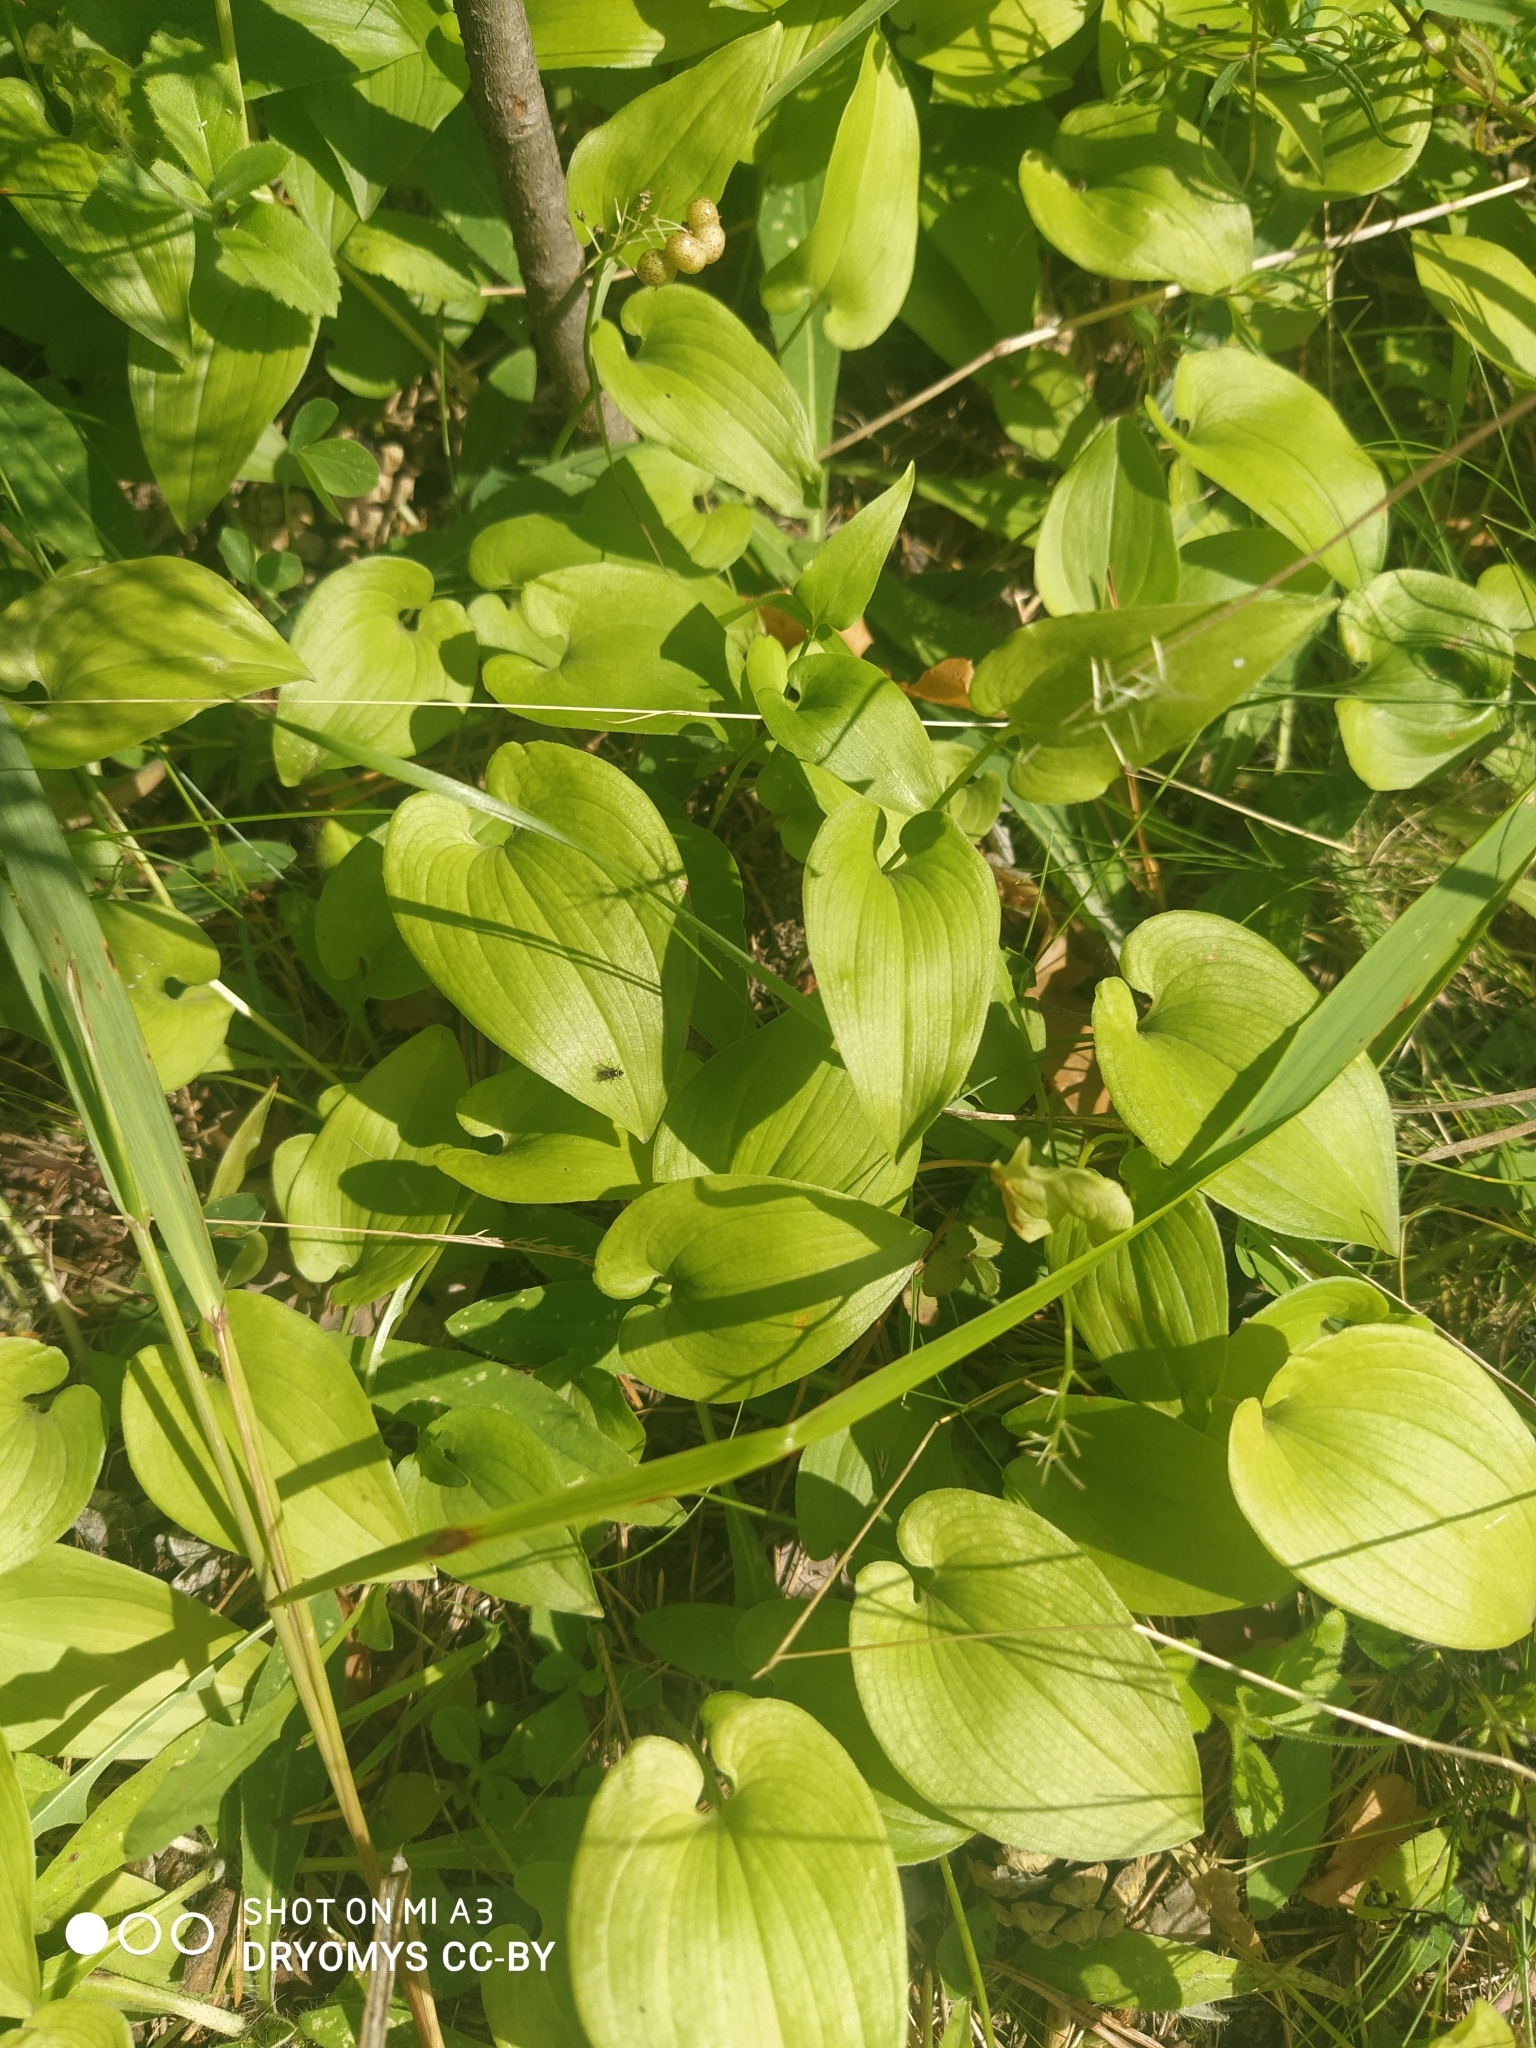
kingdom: Plantae
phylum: Tracheophyta
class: Liliopsida
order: Asparagales
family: Asparagaceae
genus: Maianthemum
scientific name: Maianthemum bifolium
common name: May lily
